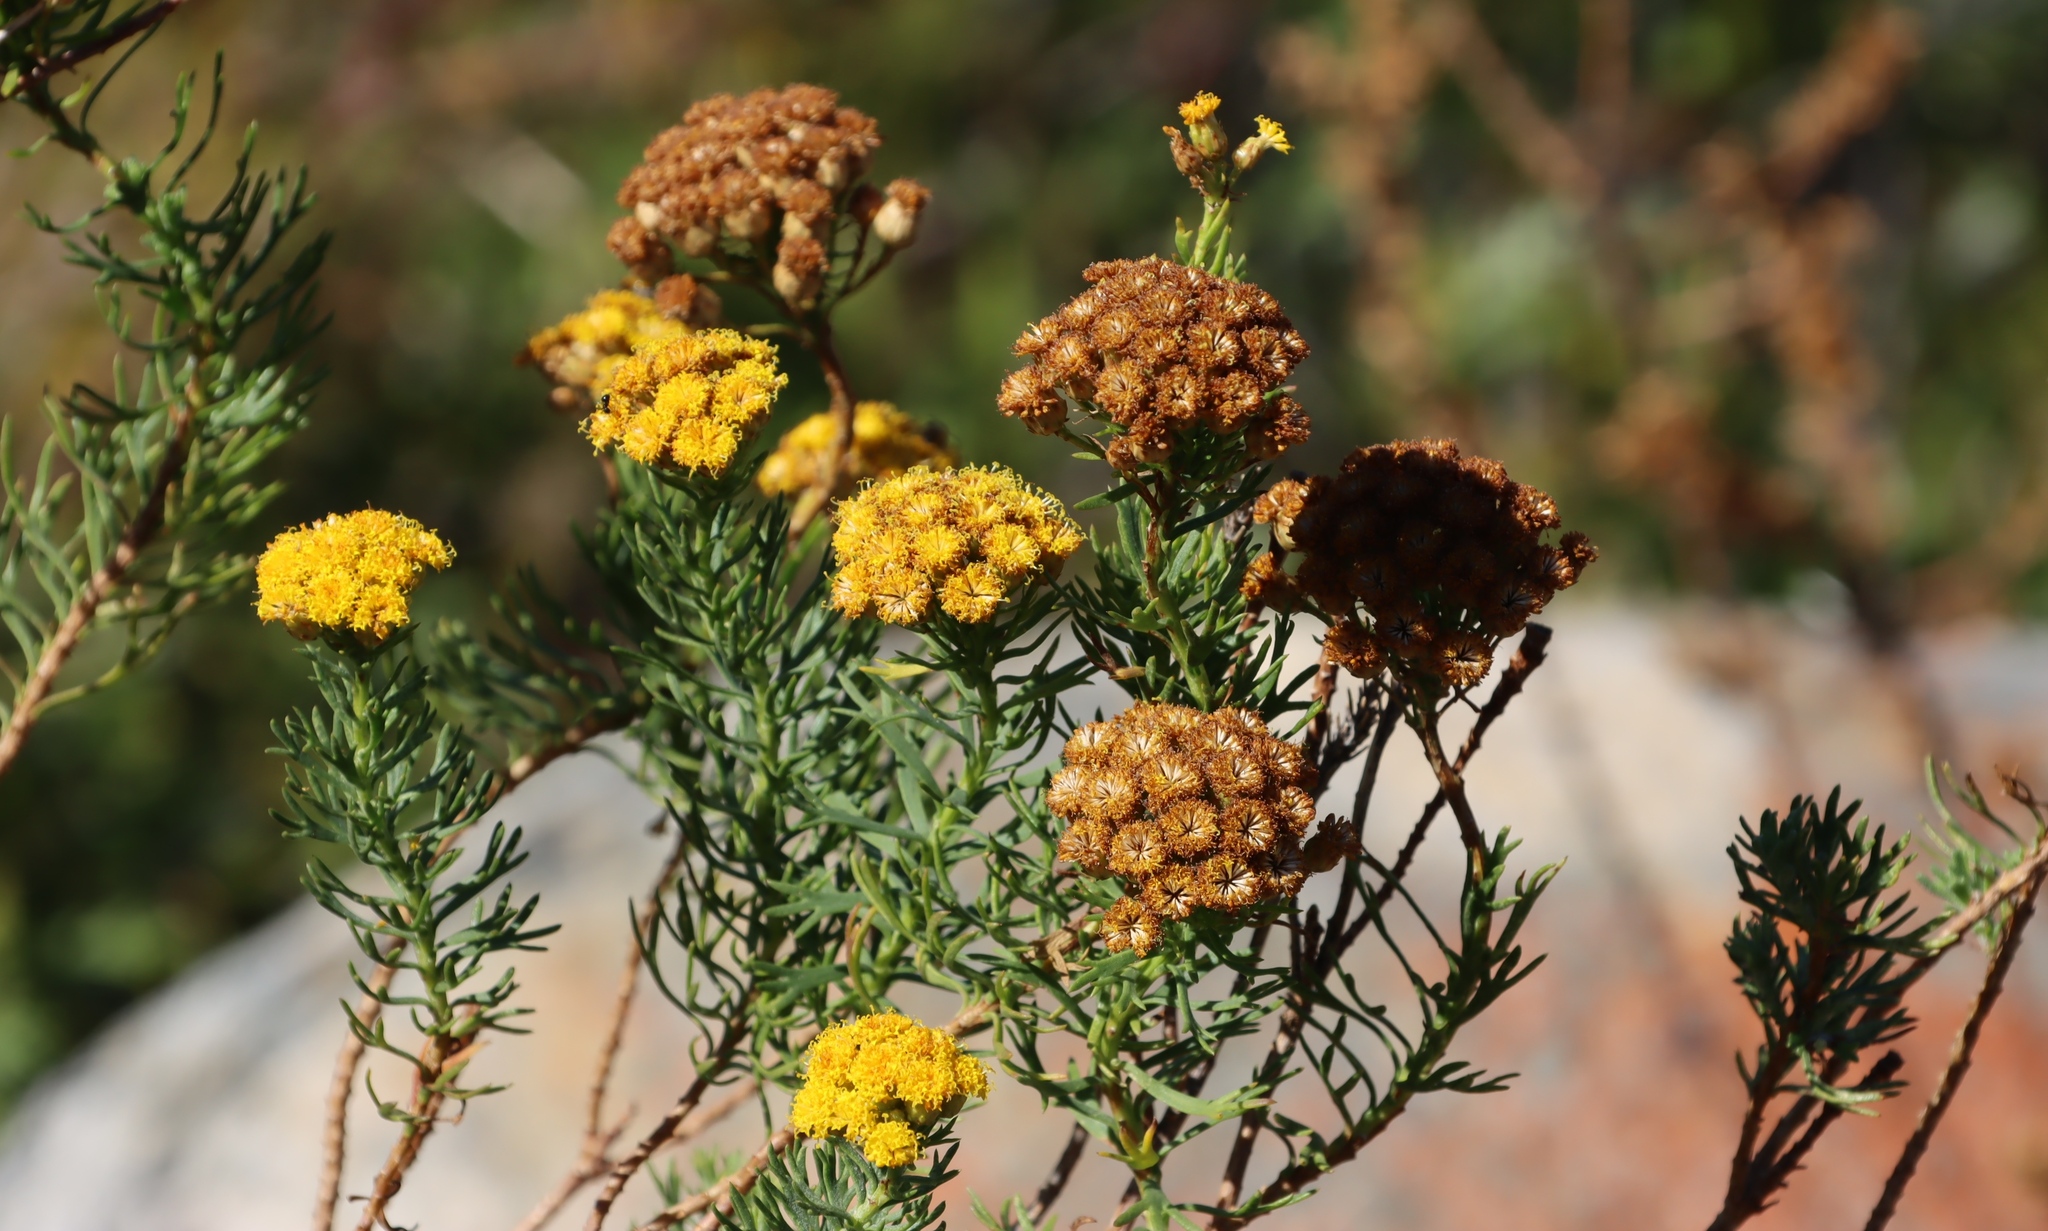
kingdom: Plantae
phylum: Tracheophyta
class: Magnoliopsida
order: Asterales
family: Asteraceae
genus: Athanasia
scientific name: Athanasia crithmifolia
